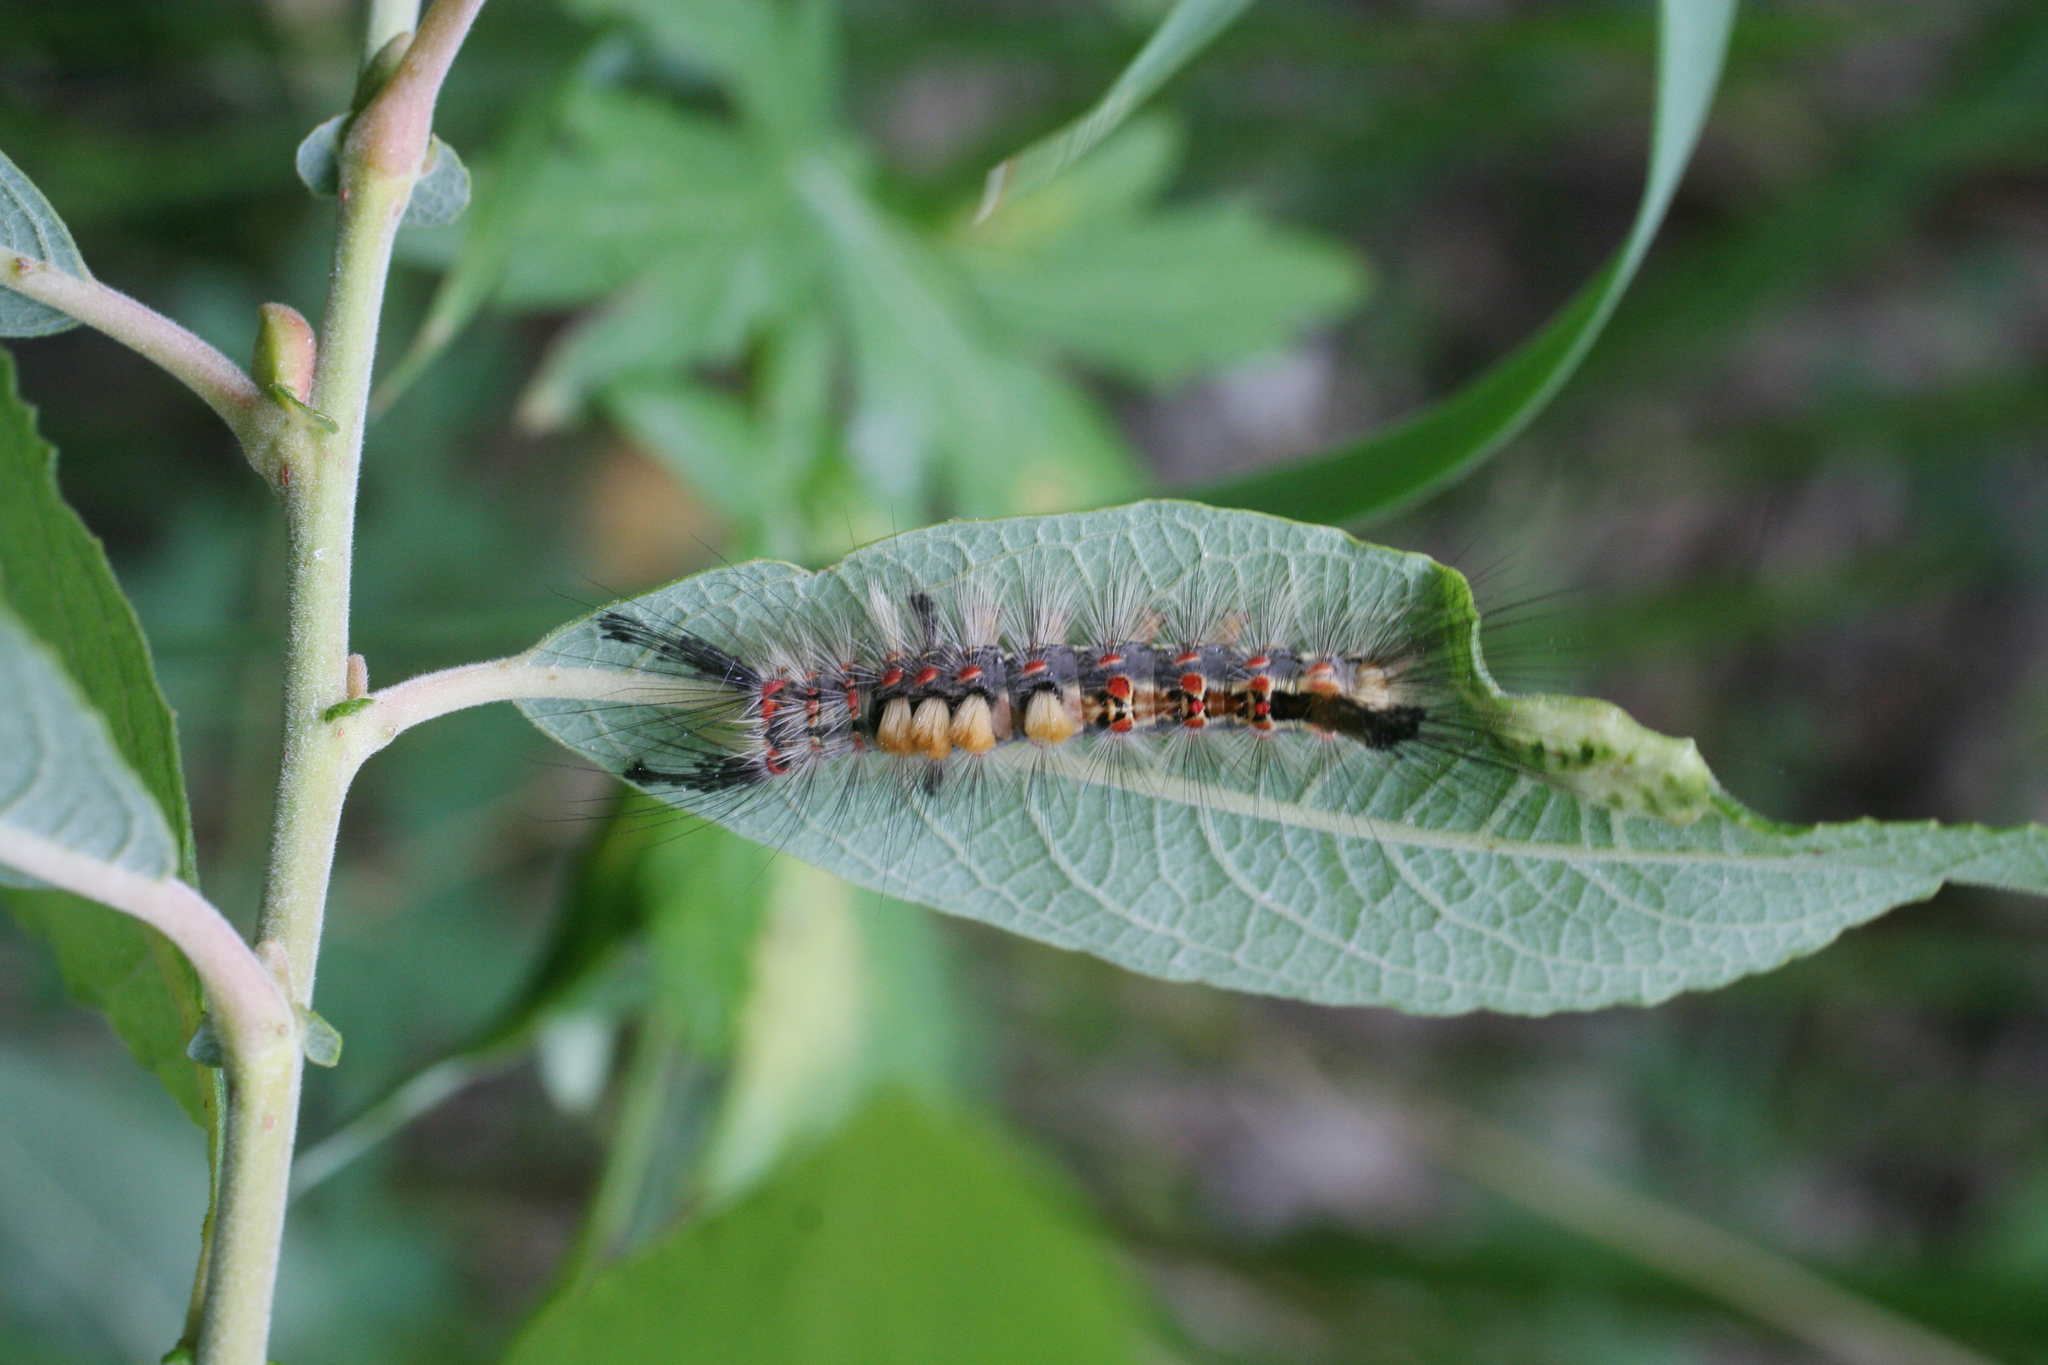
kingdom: Animalia
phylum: Arthropoda
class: Insecta
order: Lepidoptera
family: Erebidae
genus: Orgyia
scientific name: Orgyia antiqua
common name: Vapourer
